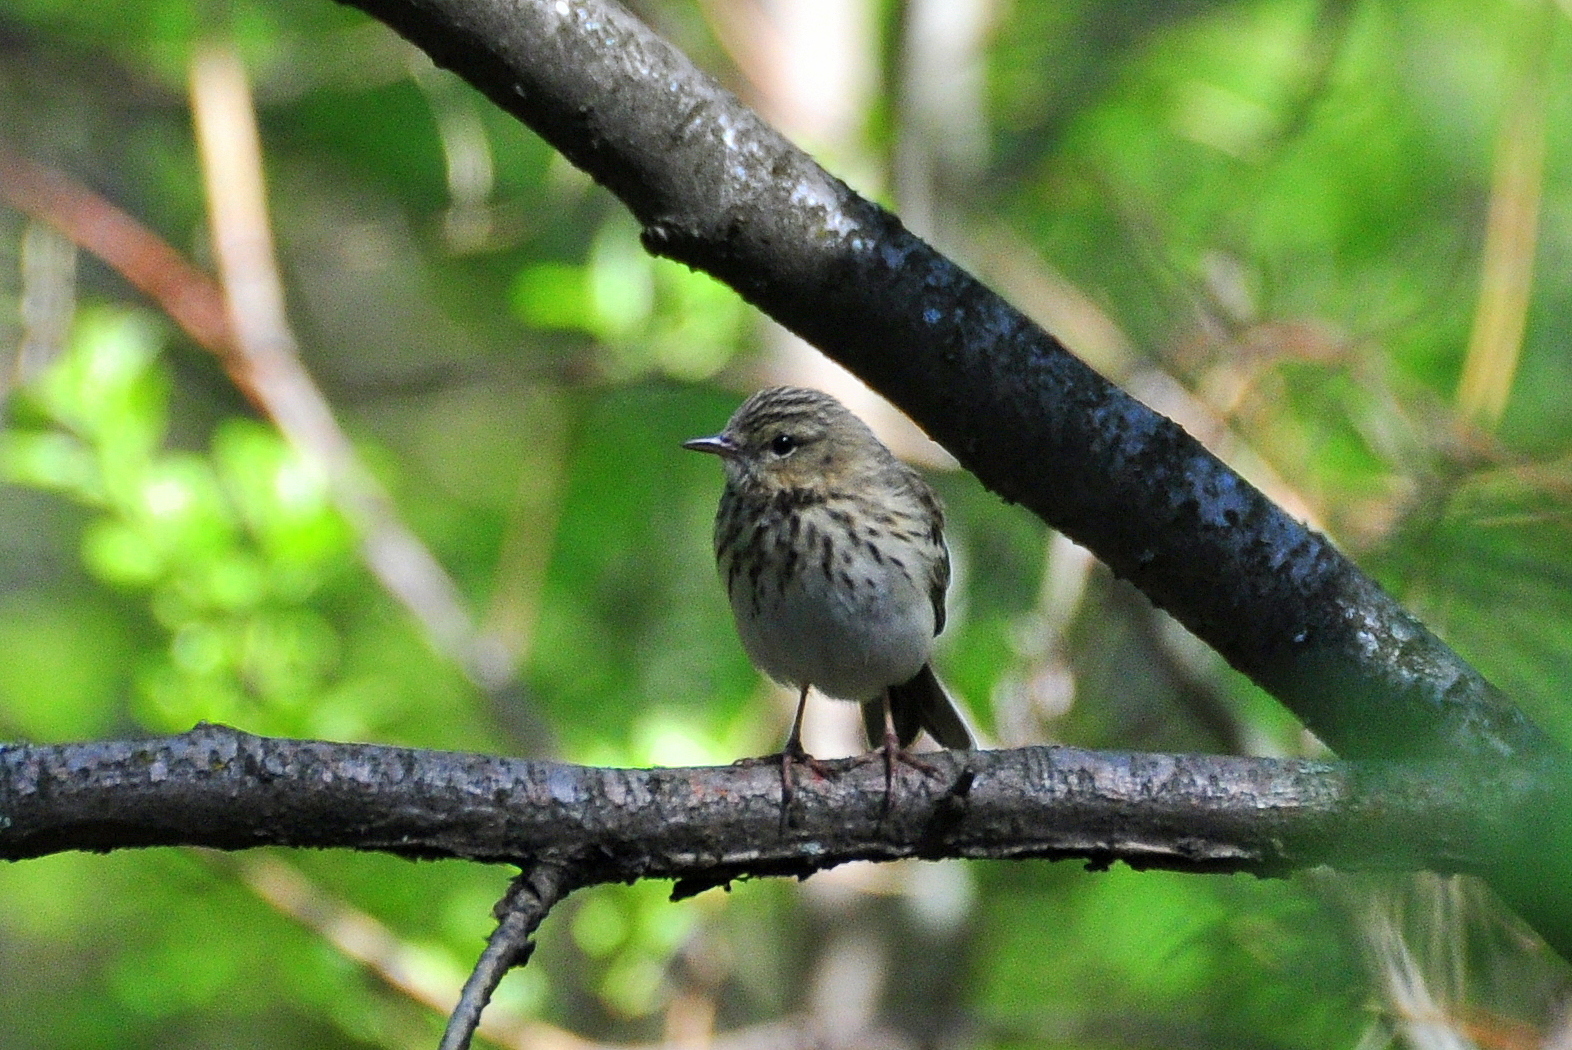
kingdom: Animalia
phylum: Chordata
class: Aves
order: Passeriformes
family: Motacillidae
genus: Anthus
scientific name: Anthus trivialis
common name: Tree pipit
